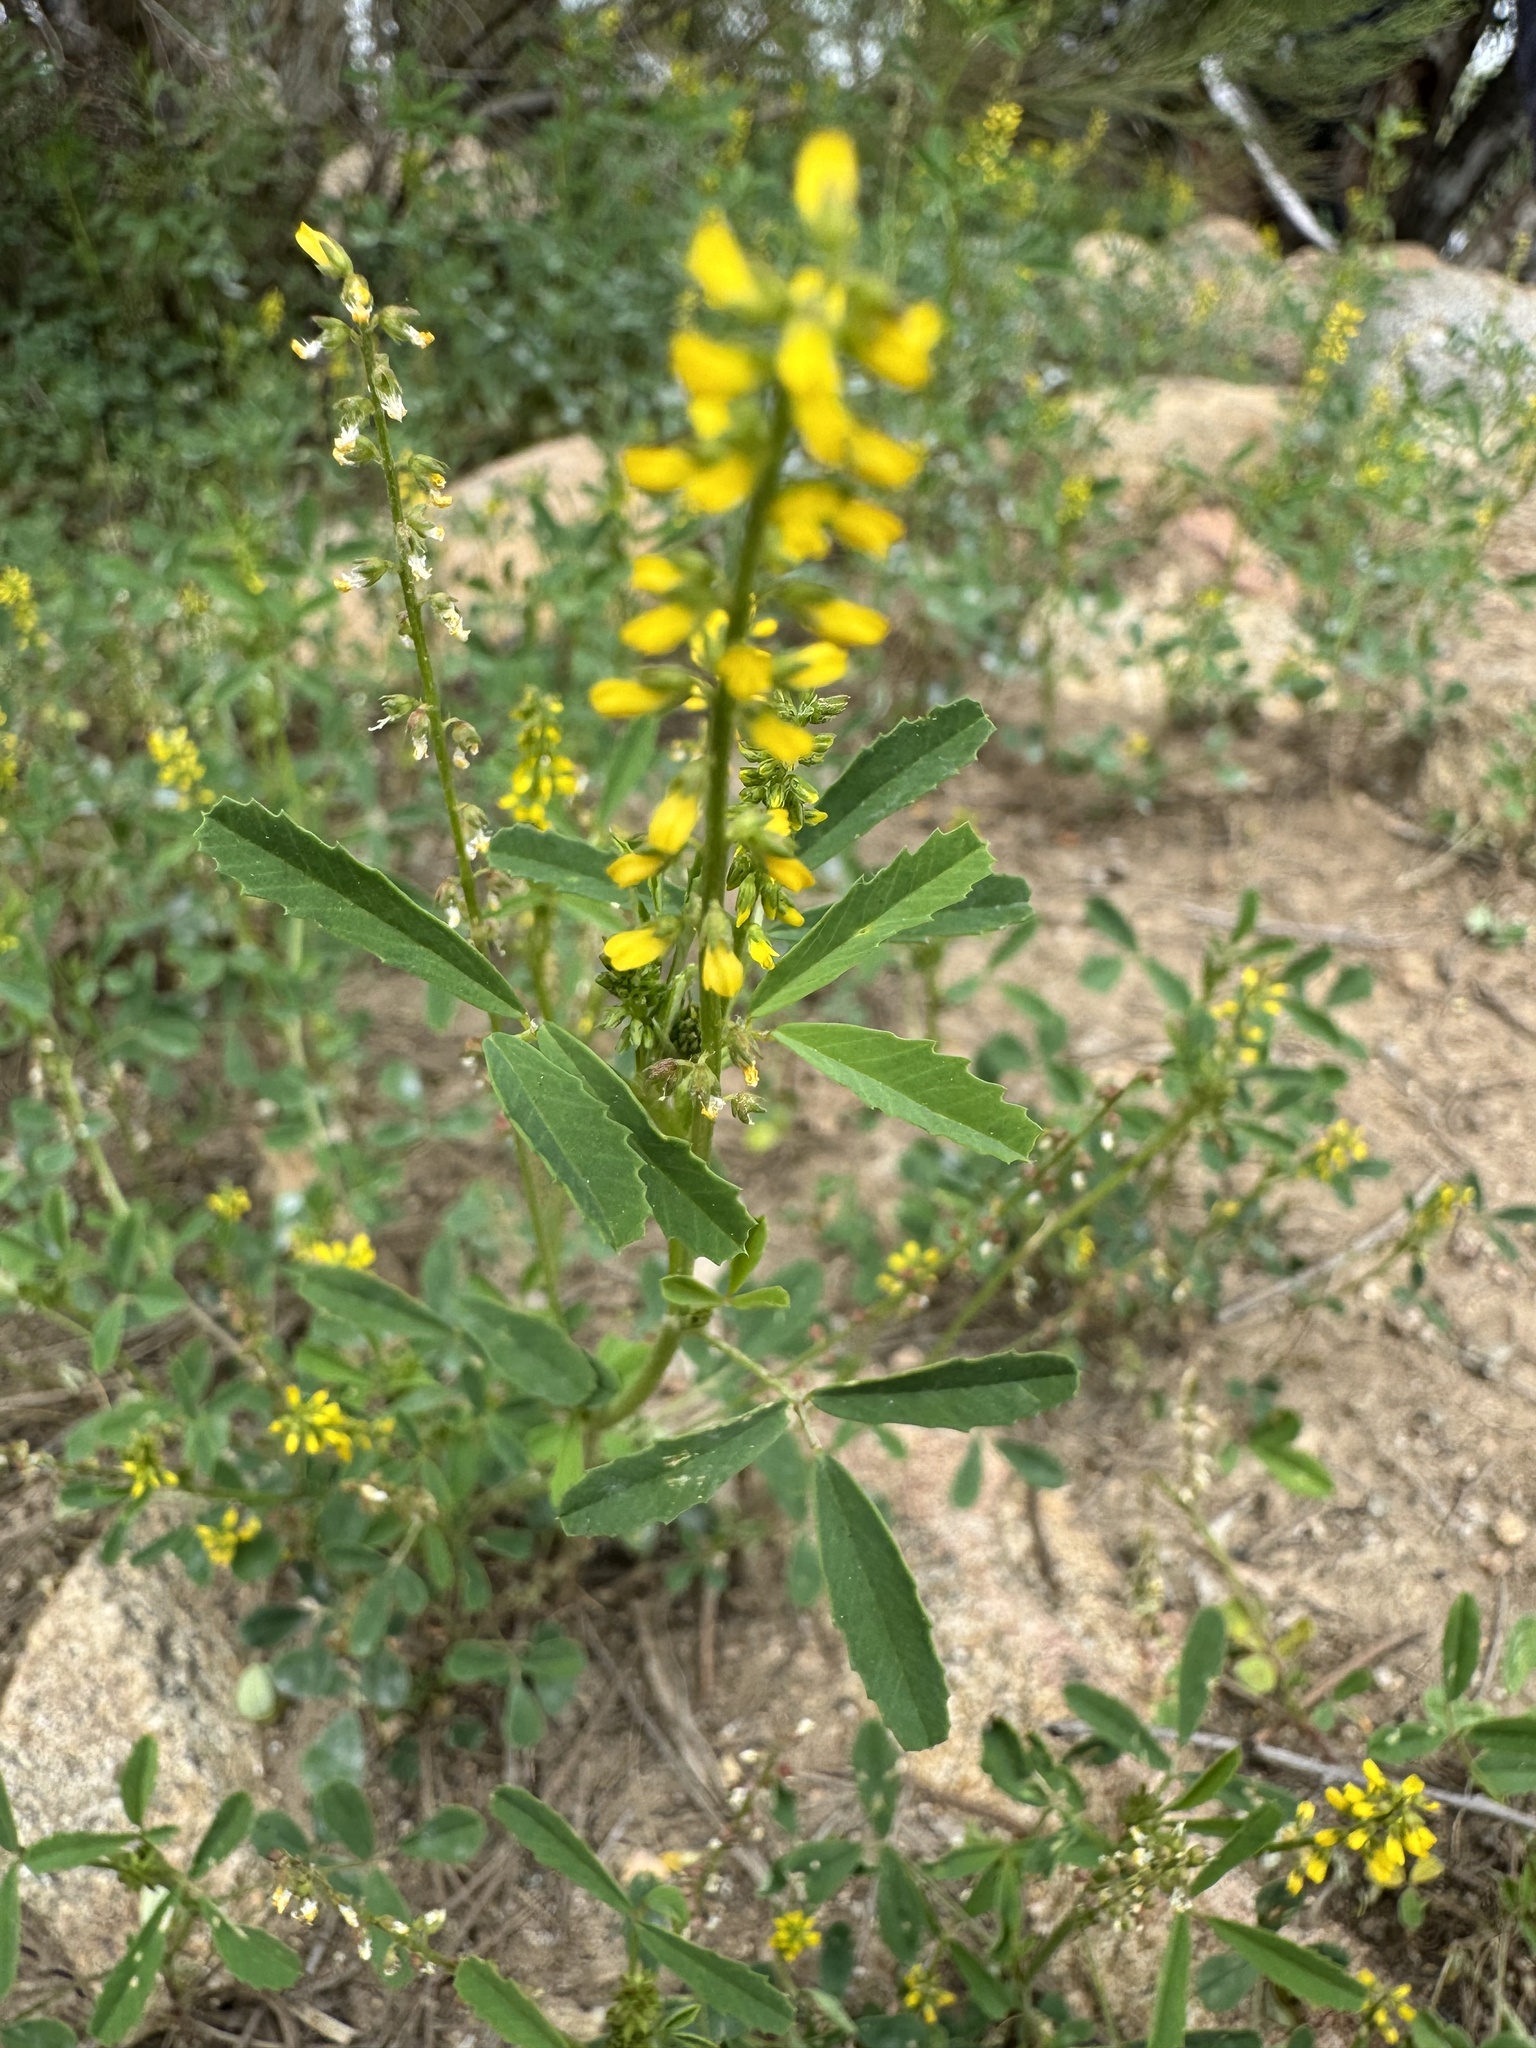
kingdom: Plantae
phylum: Tracheophyta
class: Magnoliopsida
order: Fabales
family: Fabaceae
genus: Melilotus
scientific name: Melilotus indicus
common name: Small melilot
